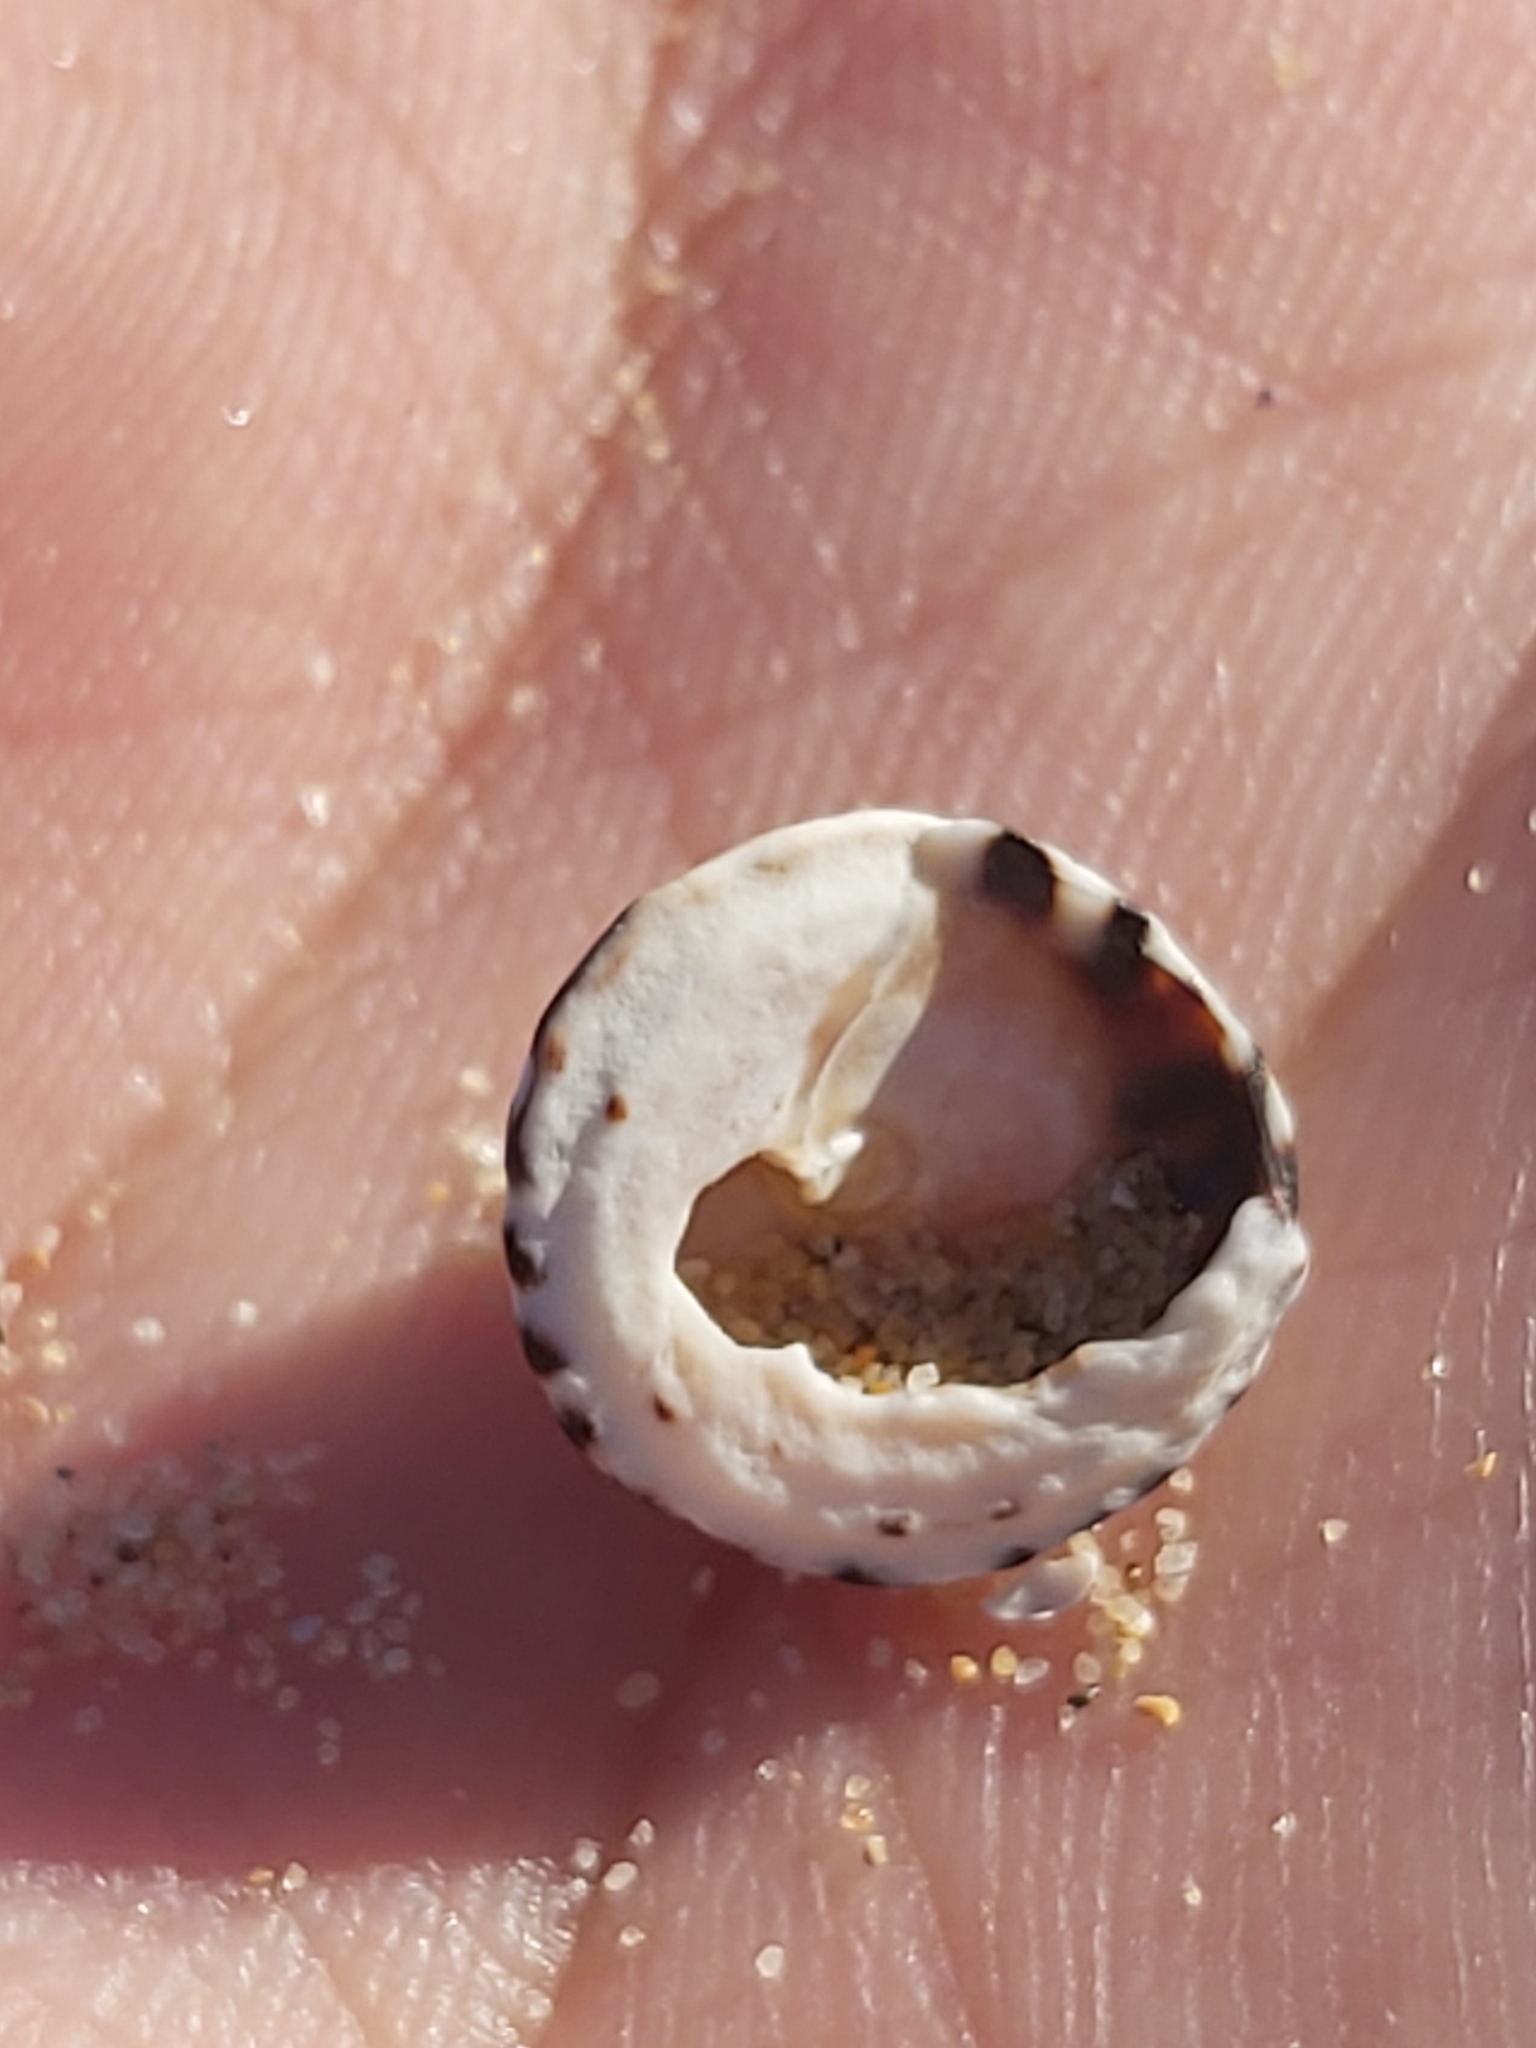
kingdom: Animalia
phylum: Mollusca
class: Gastropoda
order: Littorinimorpha
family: Littorinidae
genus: Bembicium
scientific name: Bembicium nanum
